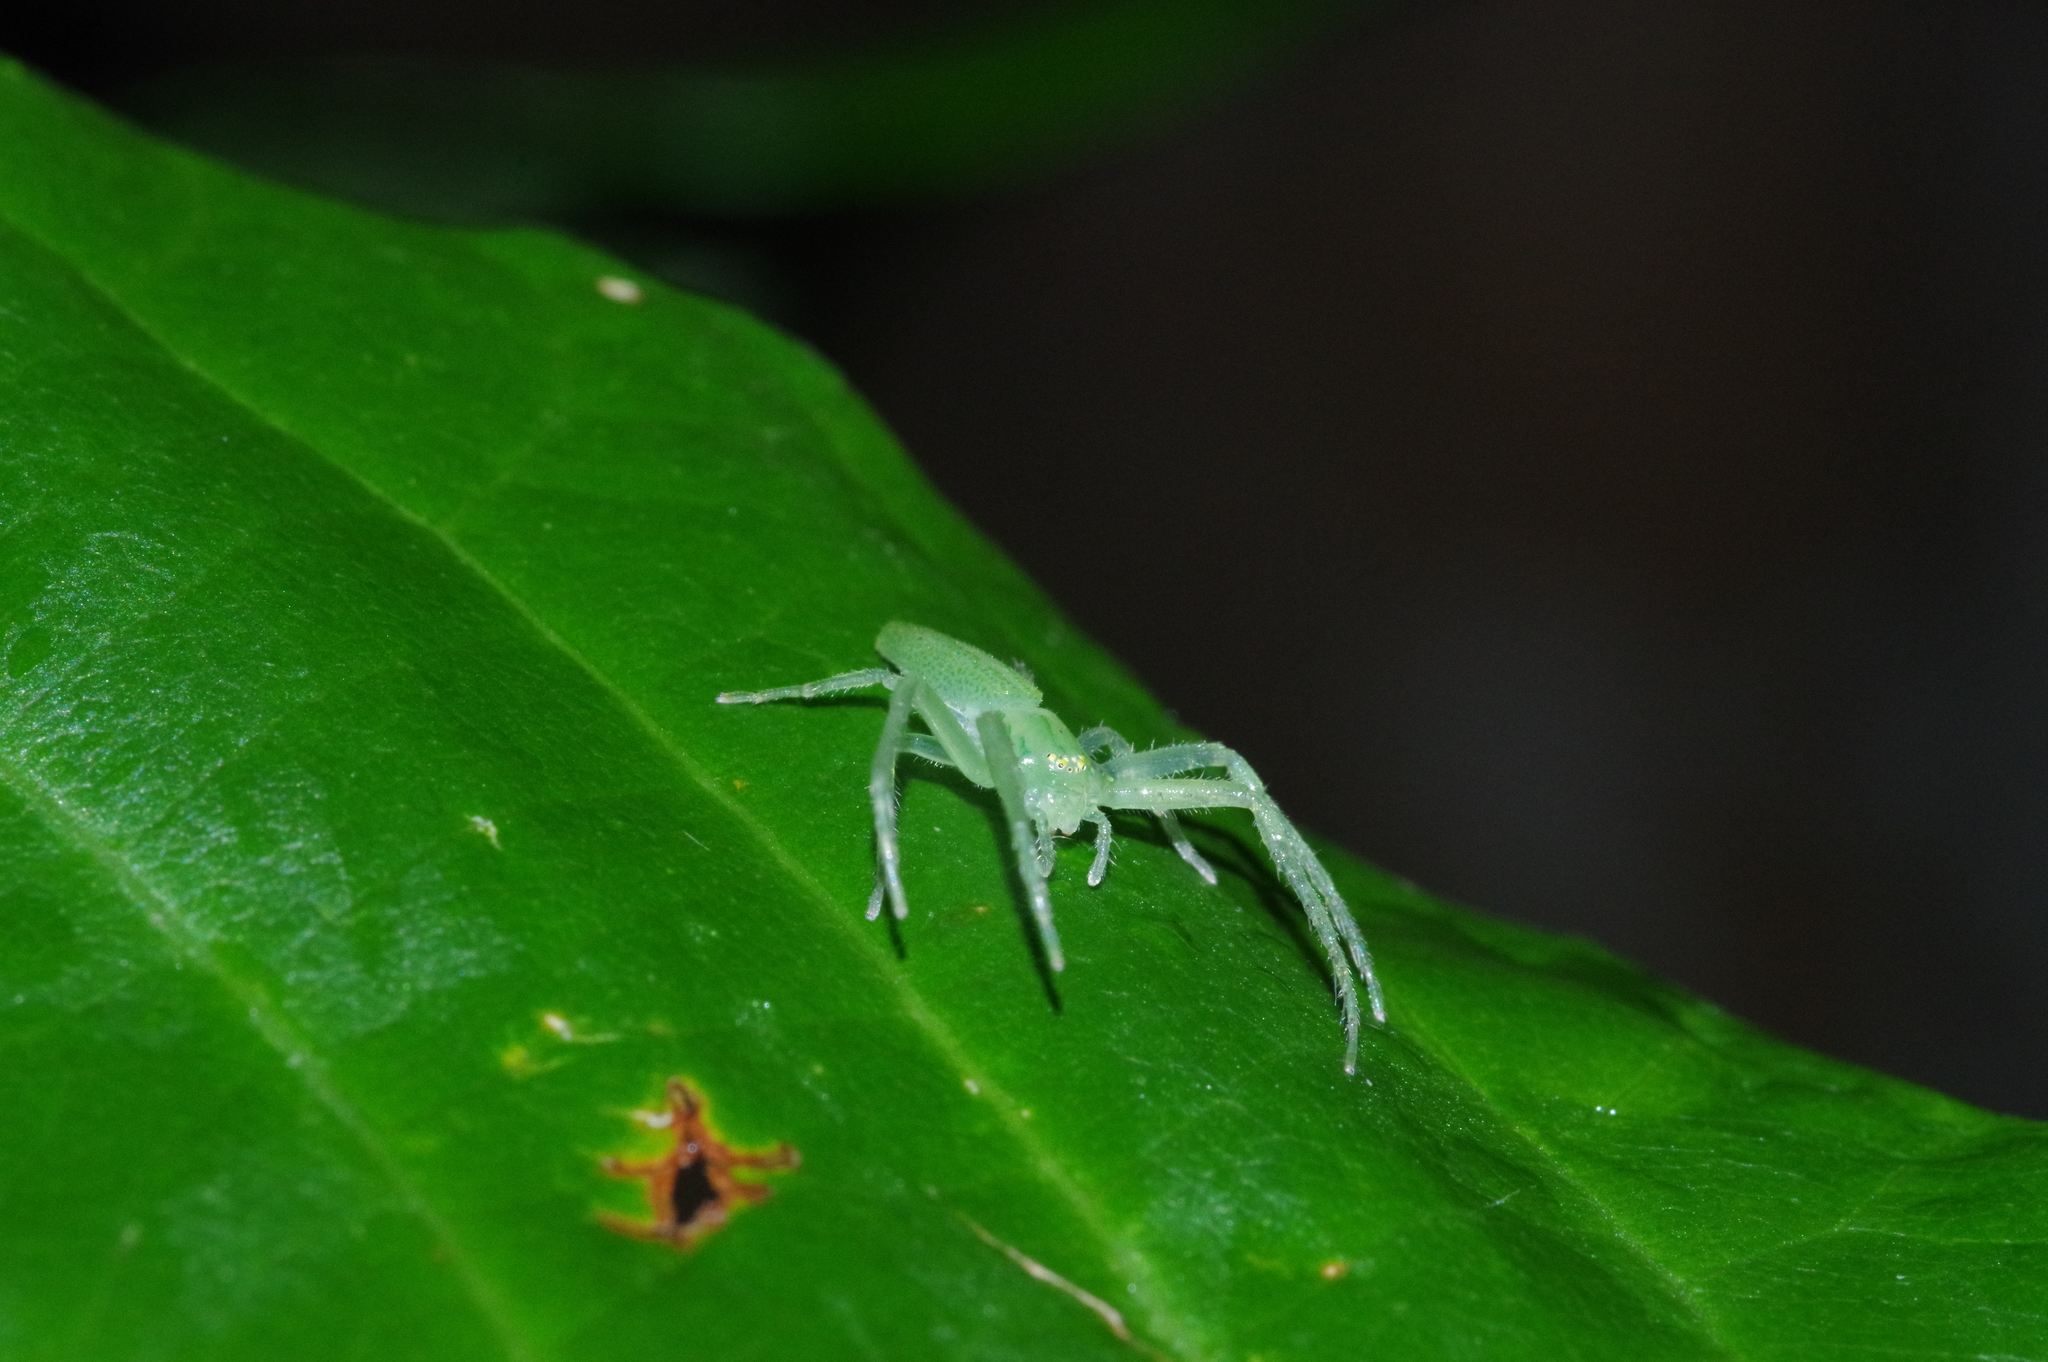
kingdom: Animalia
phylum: Arthropoda
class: Arachnida
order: Araneae
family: Thomisidae
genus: Oxytate
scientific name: Oxytate hoshizuna
